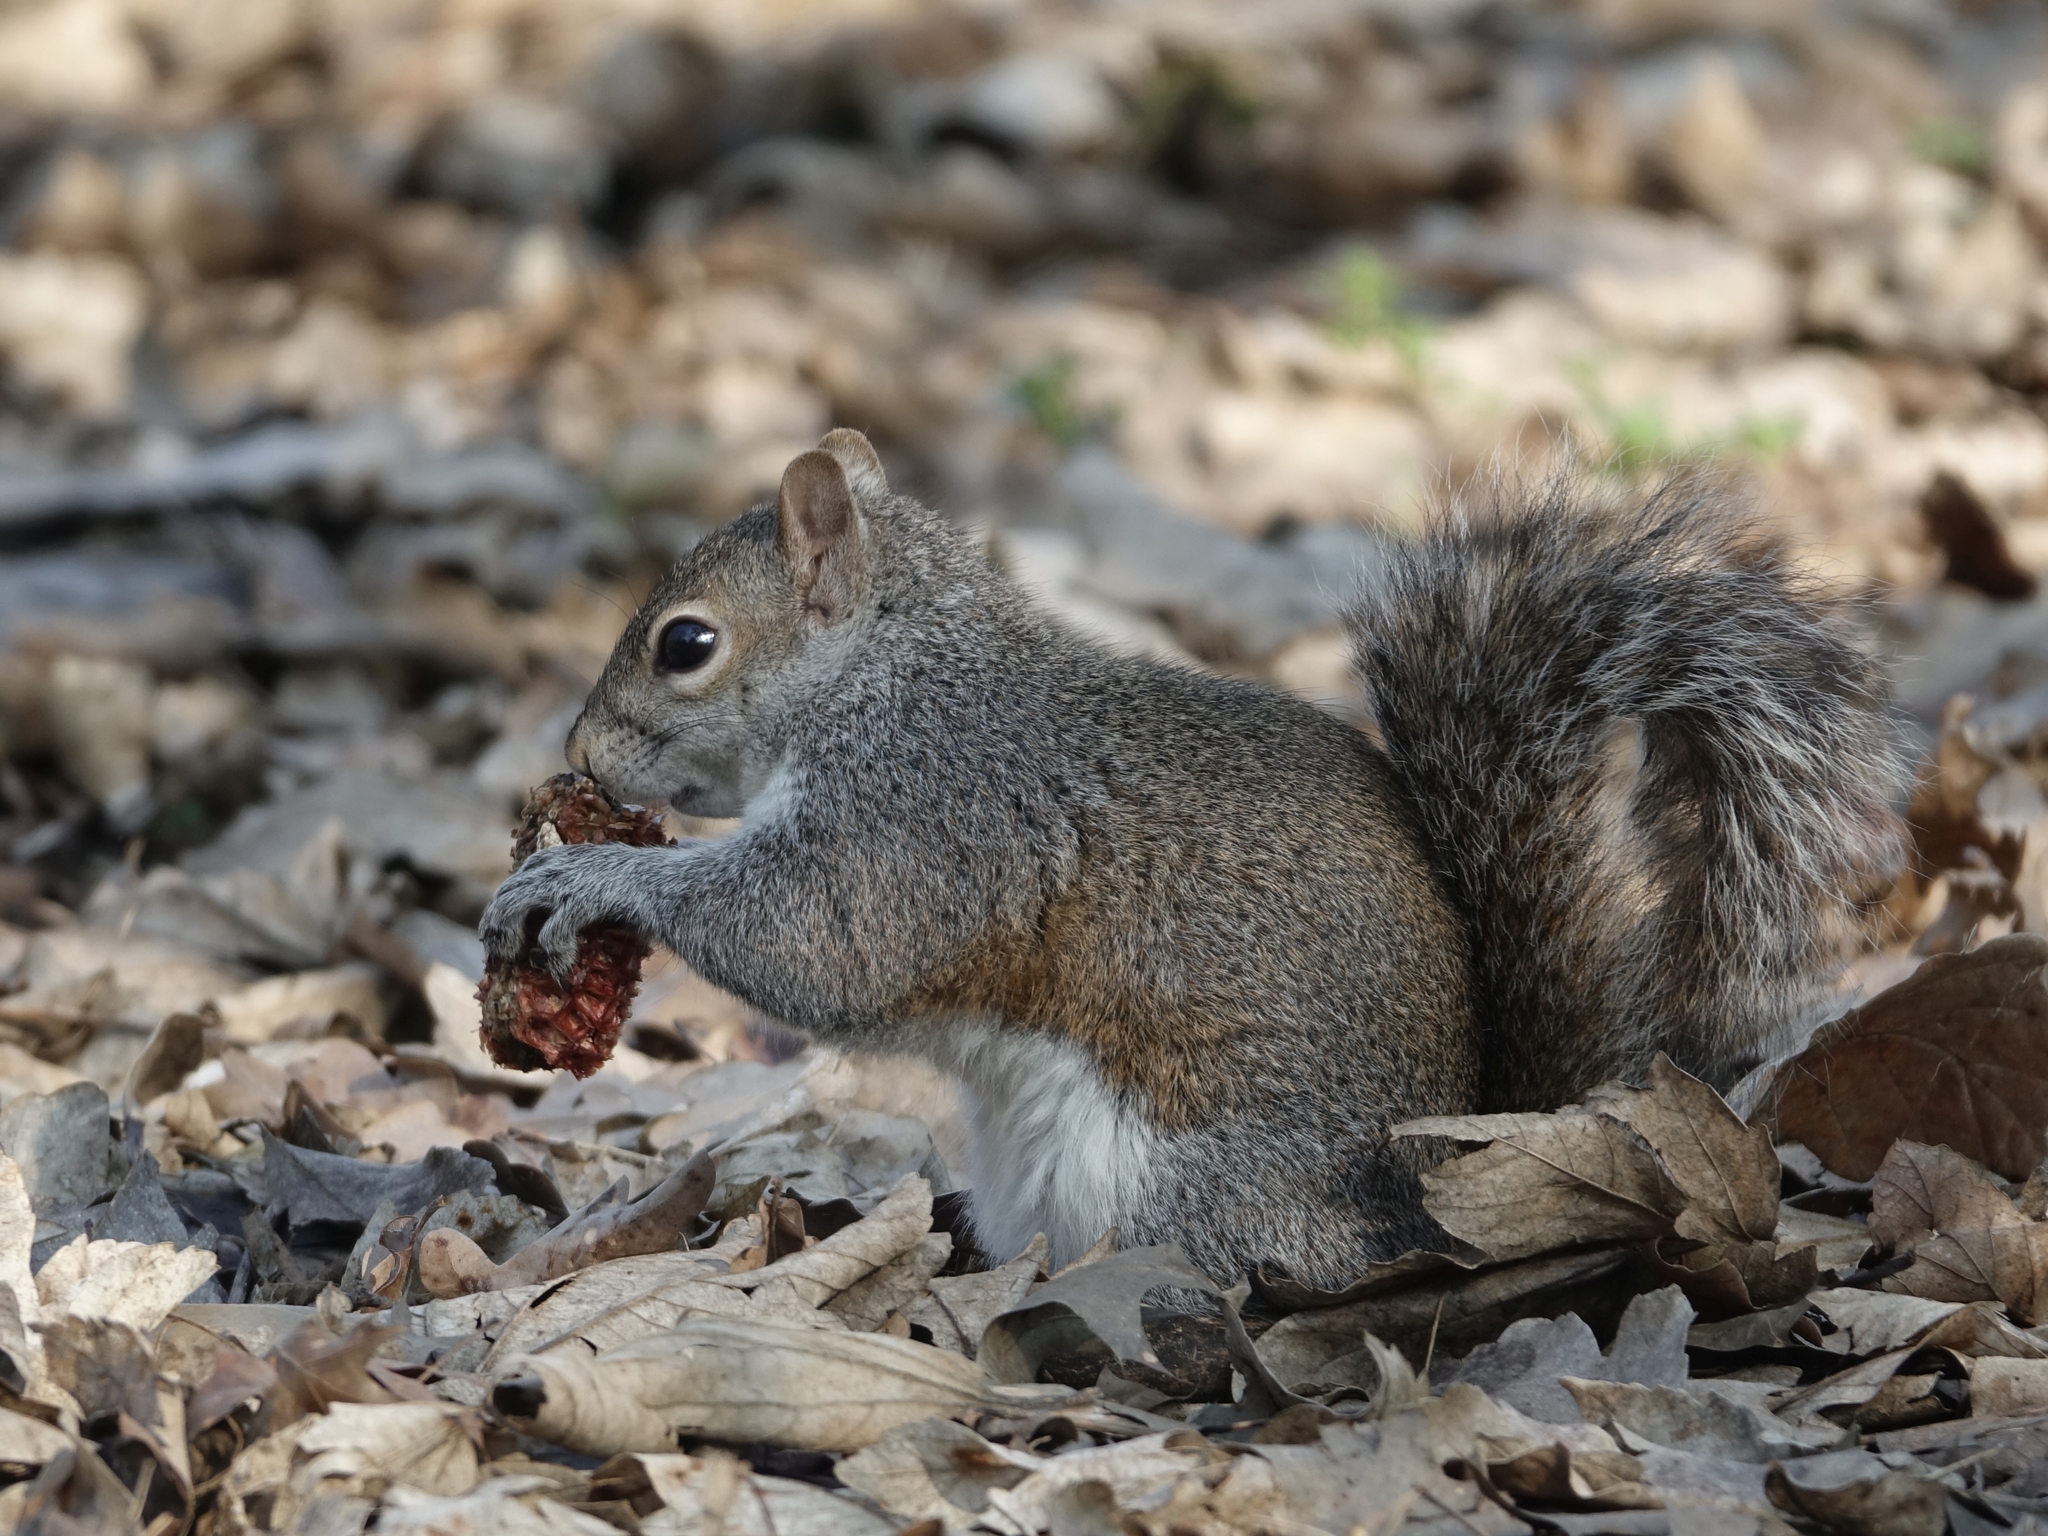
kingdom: Animalia
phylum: Chordata
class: Mammalia
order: Rodentia
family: Sciuridae
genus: Sciurus
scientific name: Sciurus carolinensis
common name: Eastern gray squirrel
